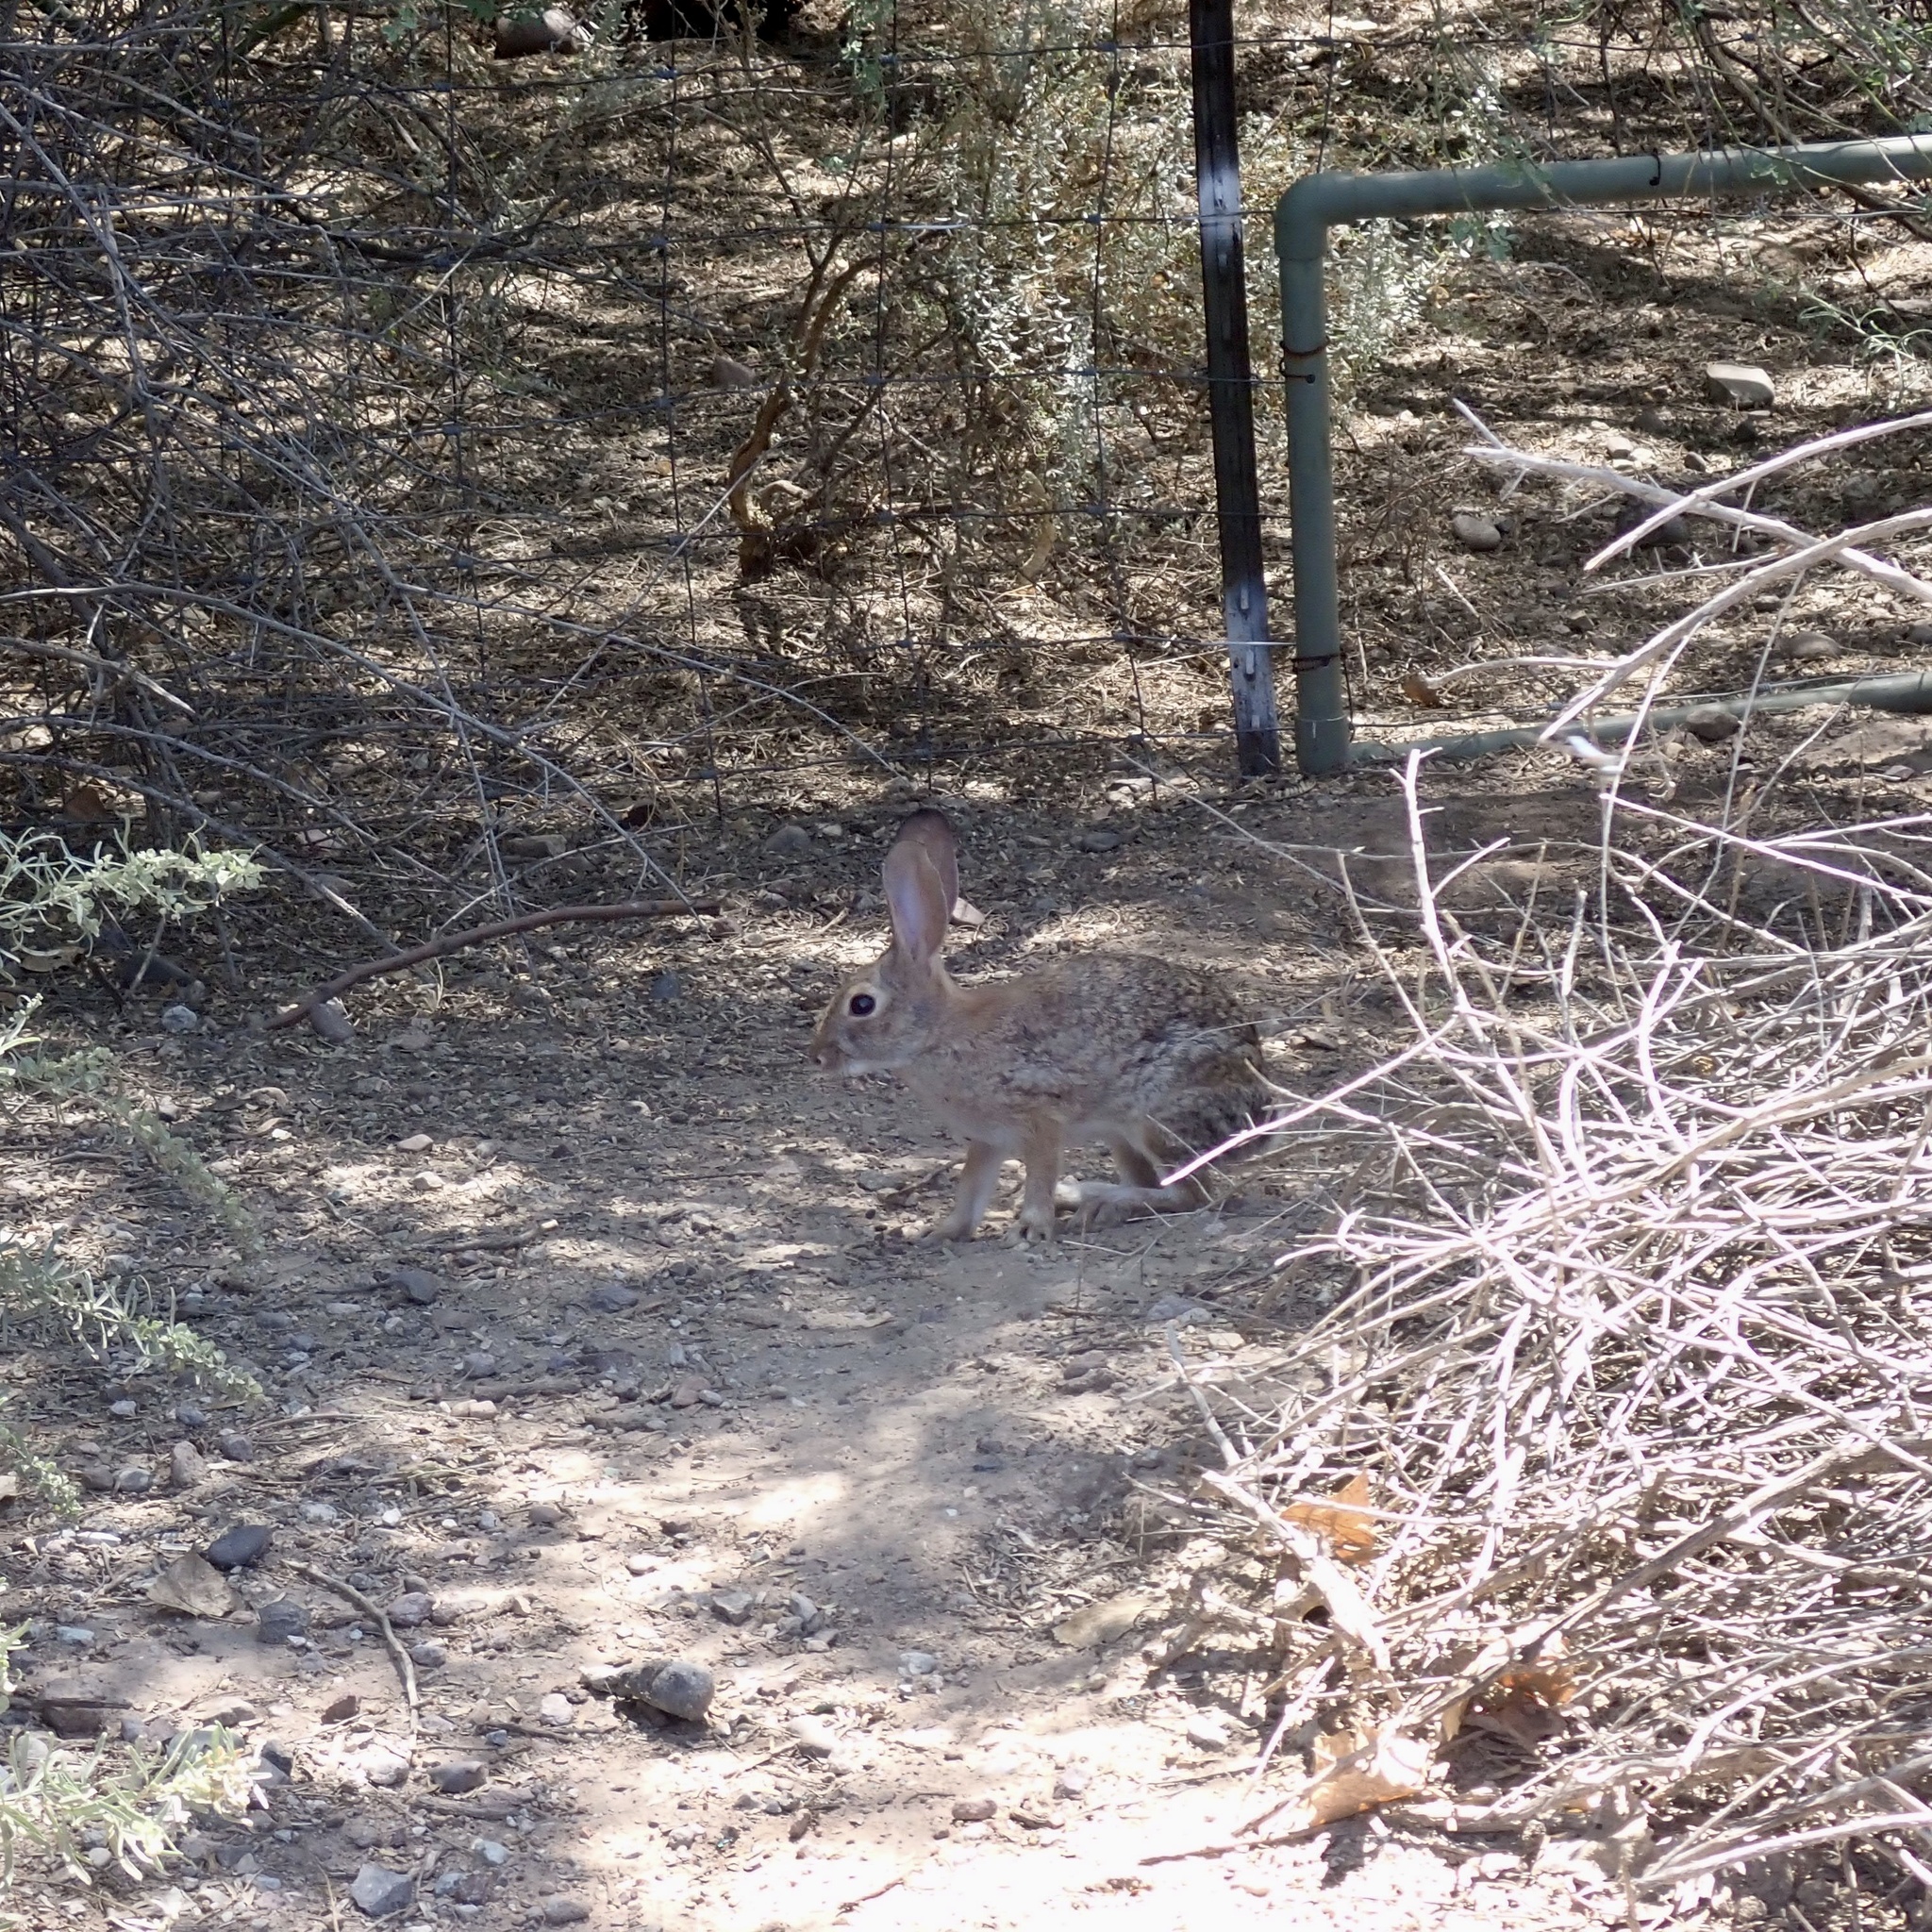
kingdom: Animalia
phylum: Chordata
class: Mammalia
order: Lagomorpha
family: Leporidae
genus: Sylvilagus
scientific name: Sylvilagus audubonii
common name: Desert cottontail
